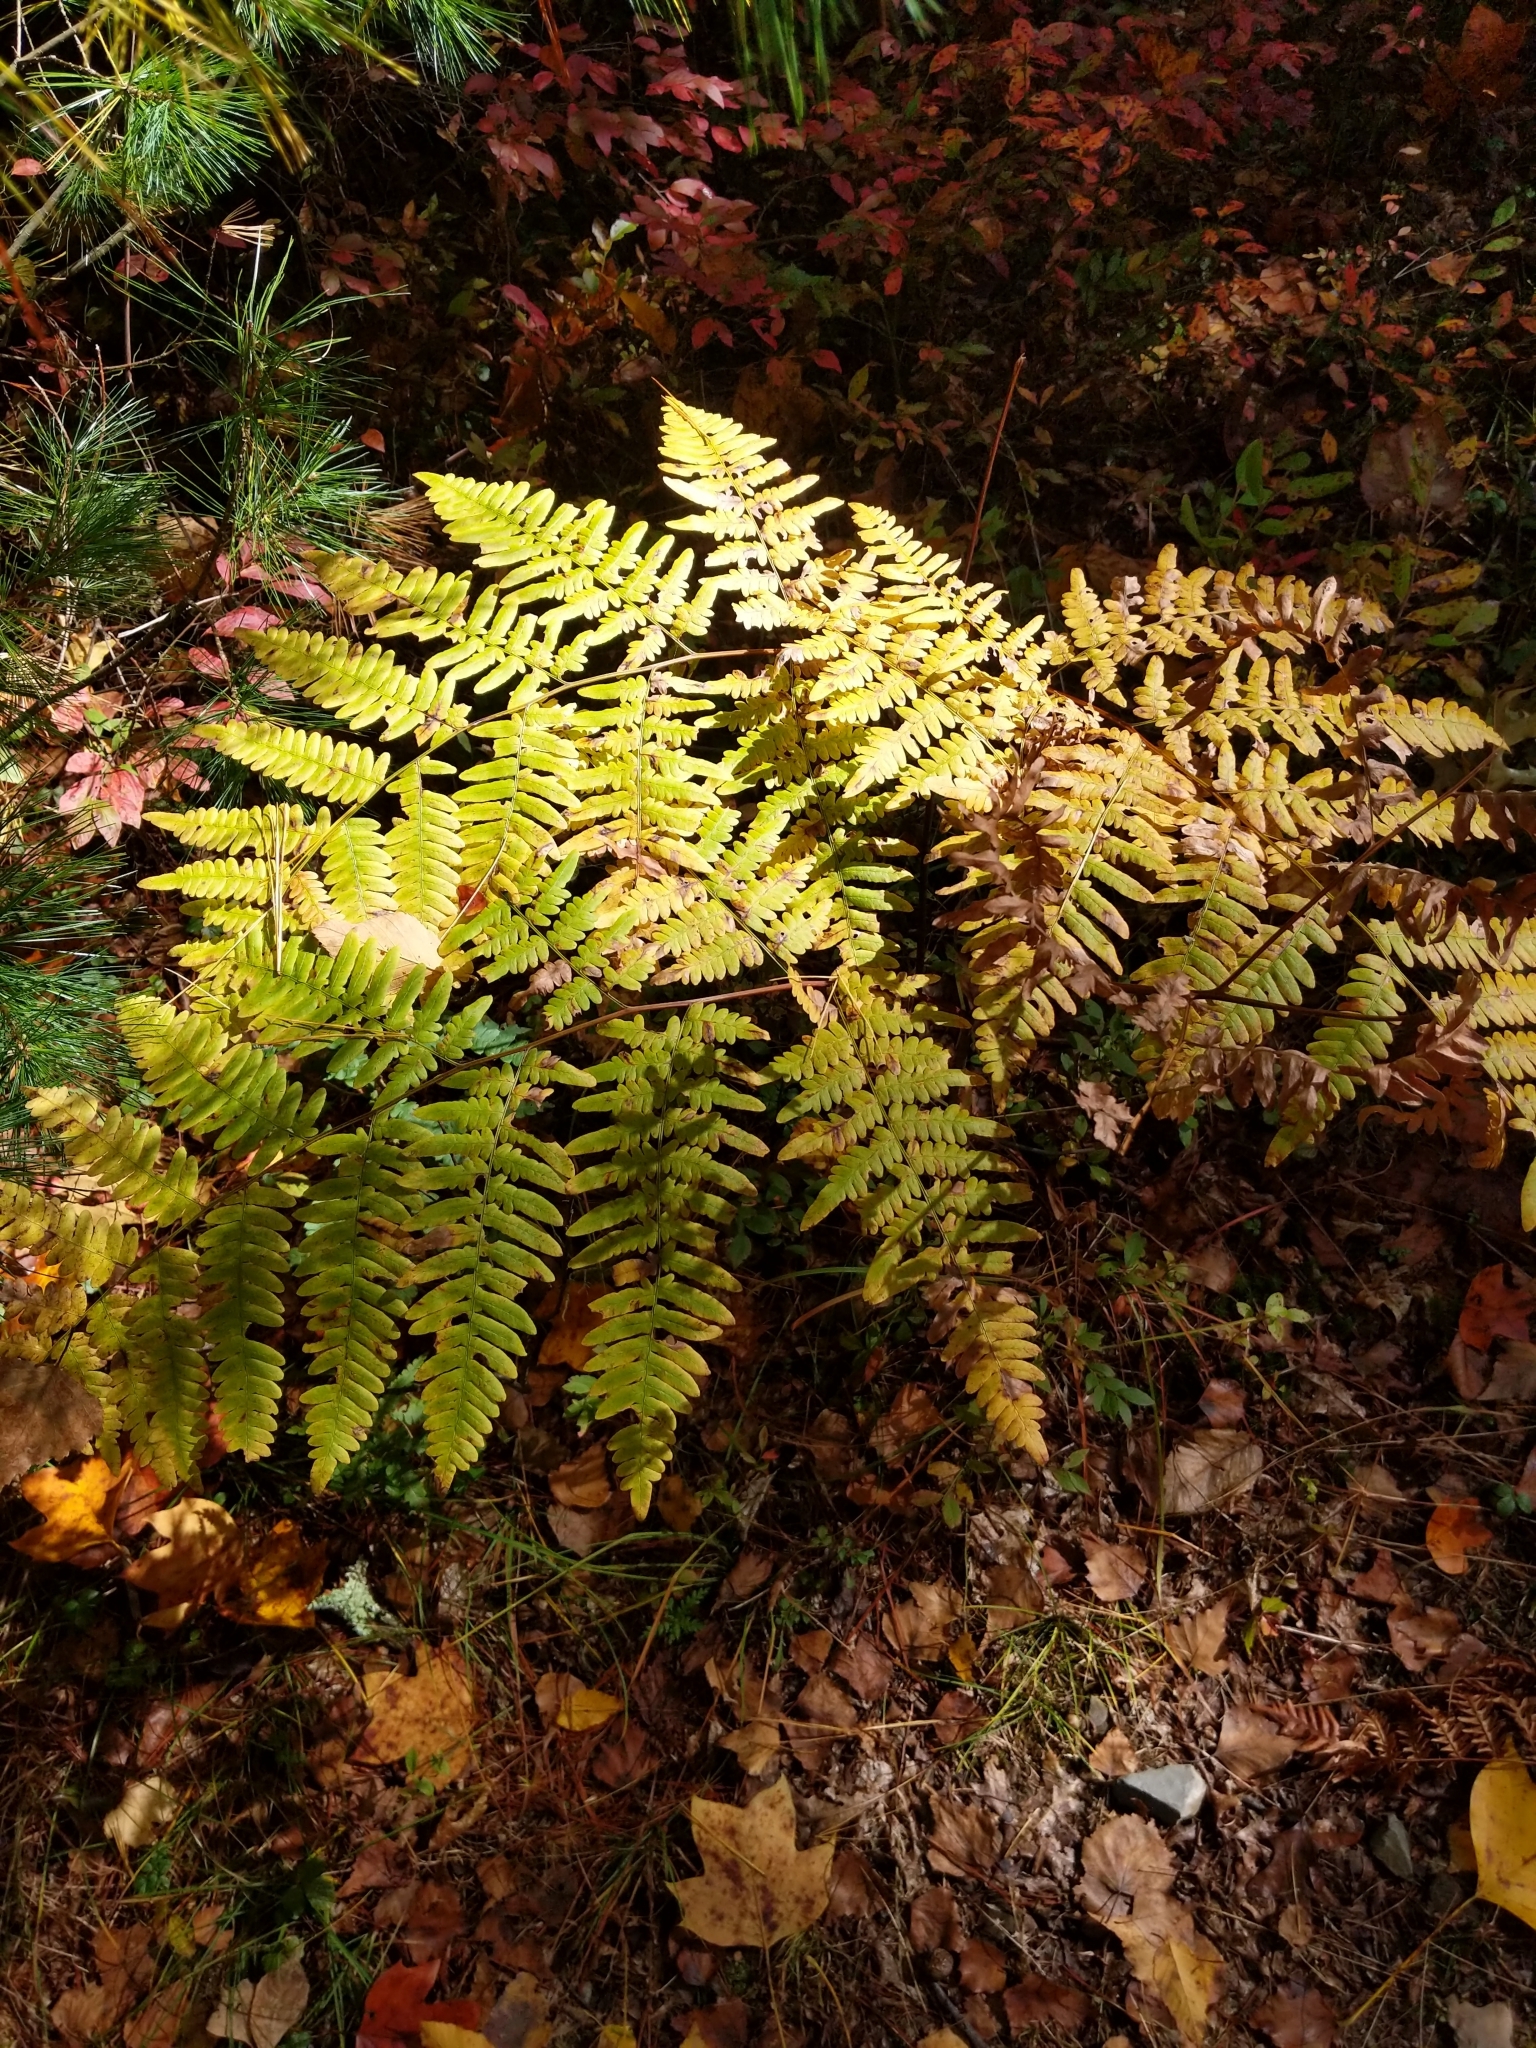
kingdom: Plantae
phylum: Tracheophyta
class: Polypodiopsida
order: Polypodiales
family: Dennstaedtiaceae
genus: Pteridium
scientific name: Pteridium aquilinum
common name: Bracken
